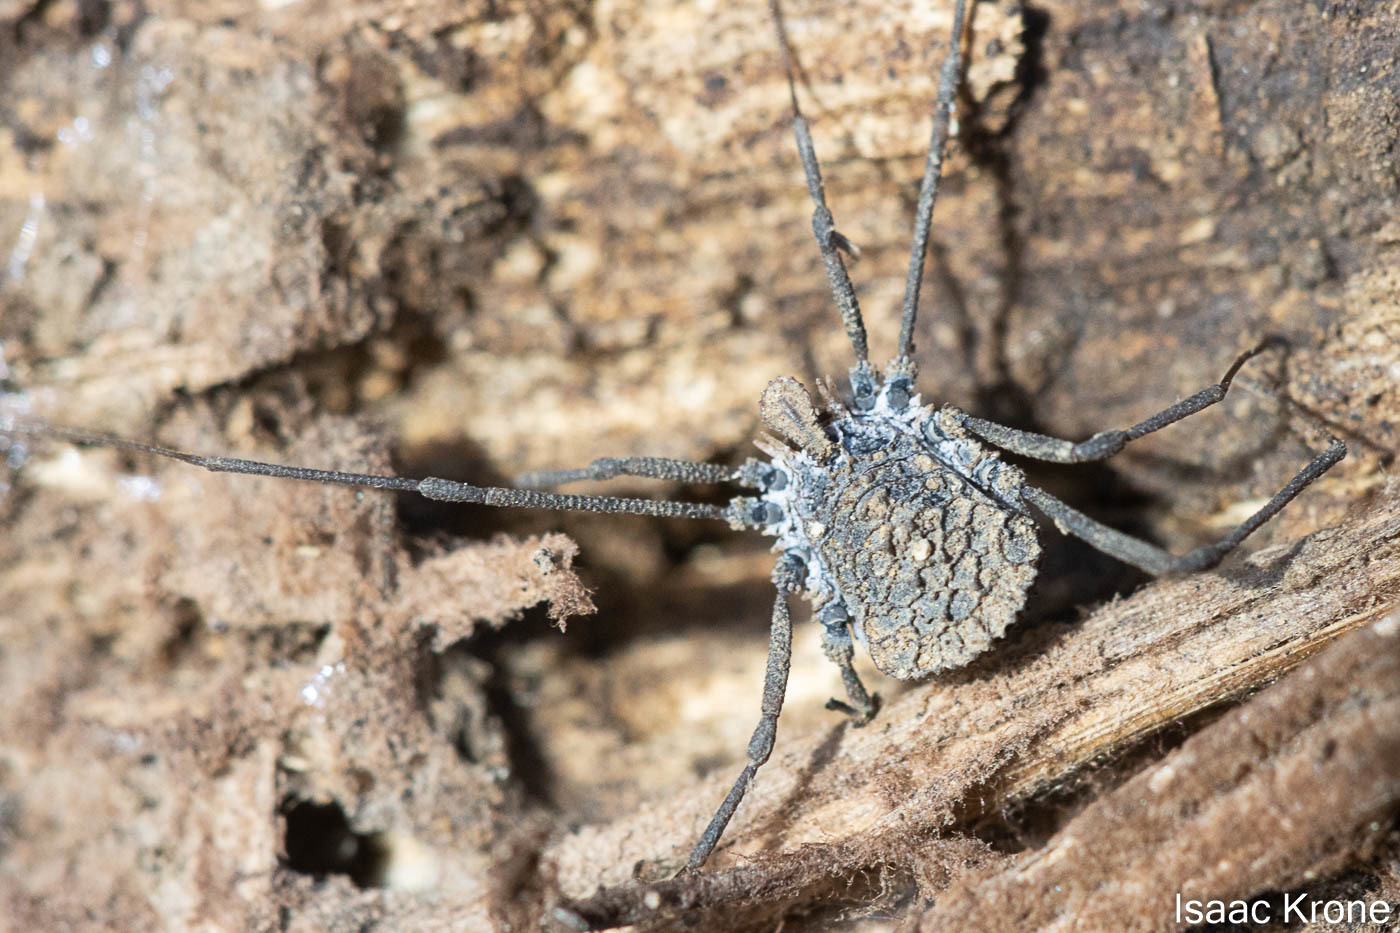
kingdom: Animalia
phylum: Arthropoda
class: Arachnida
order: Opiliones
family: Nemastomatidae
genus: Ortholasma
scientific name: Ortholasma rugosum
